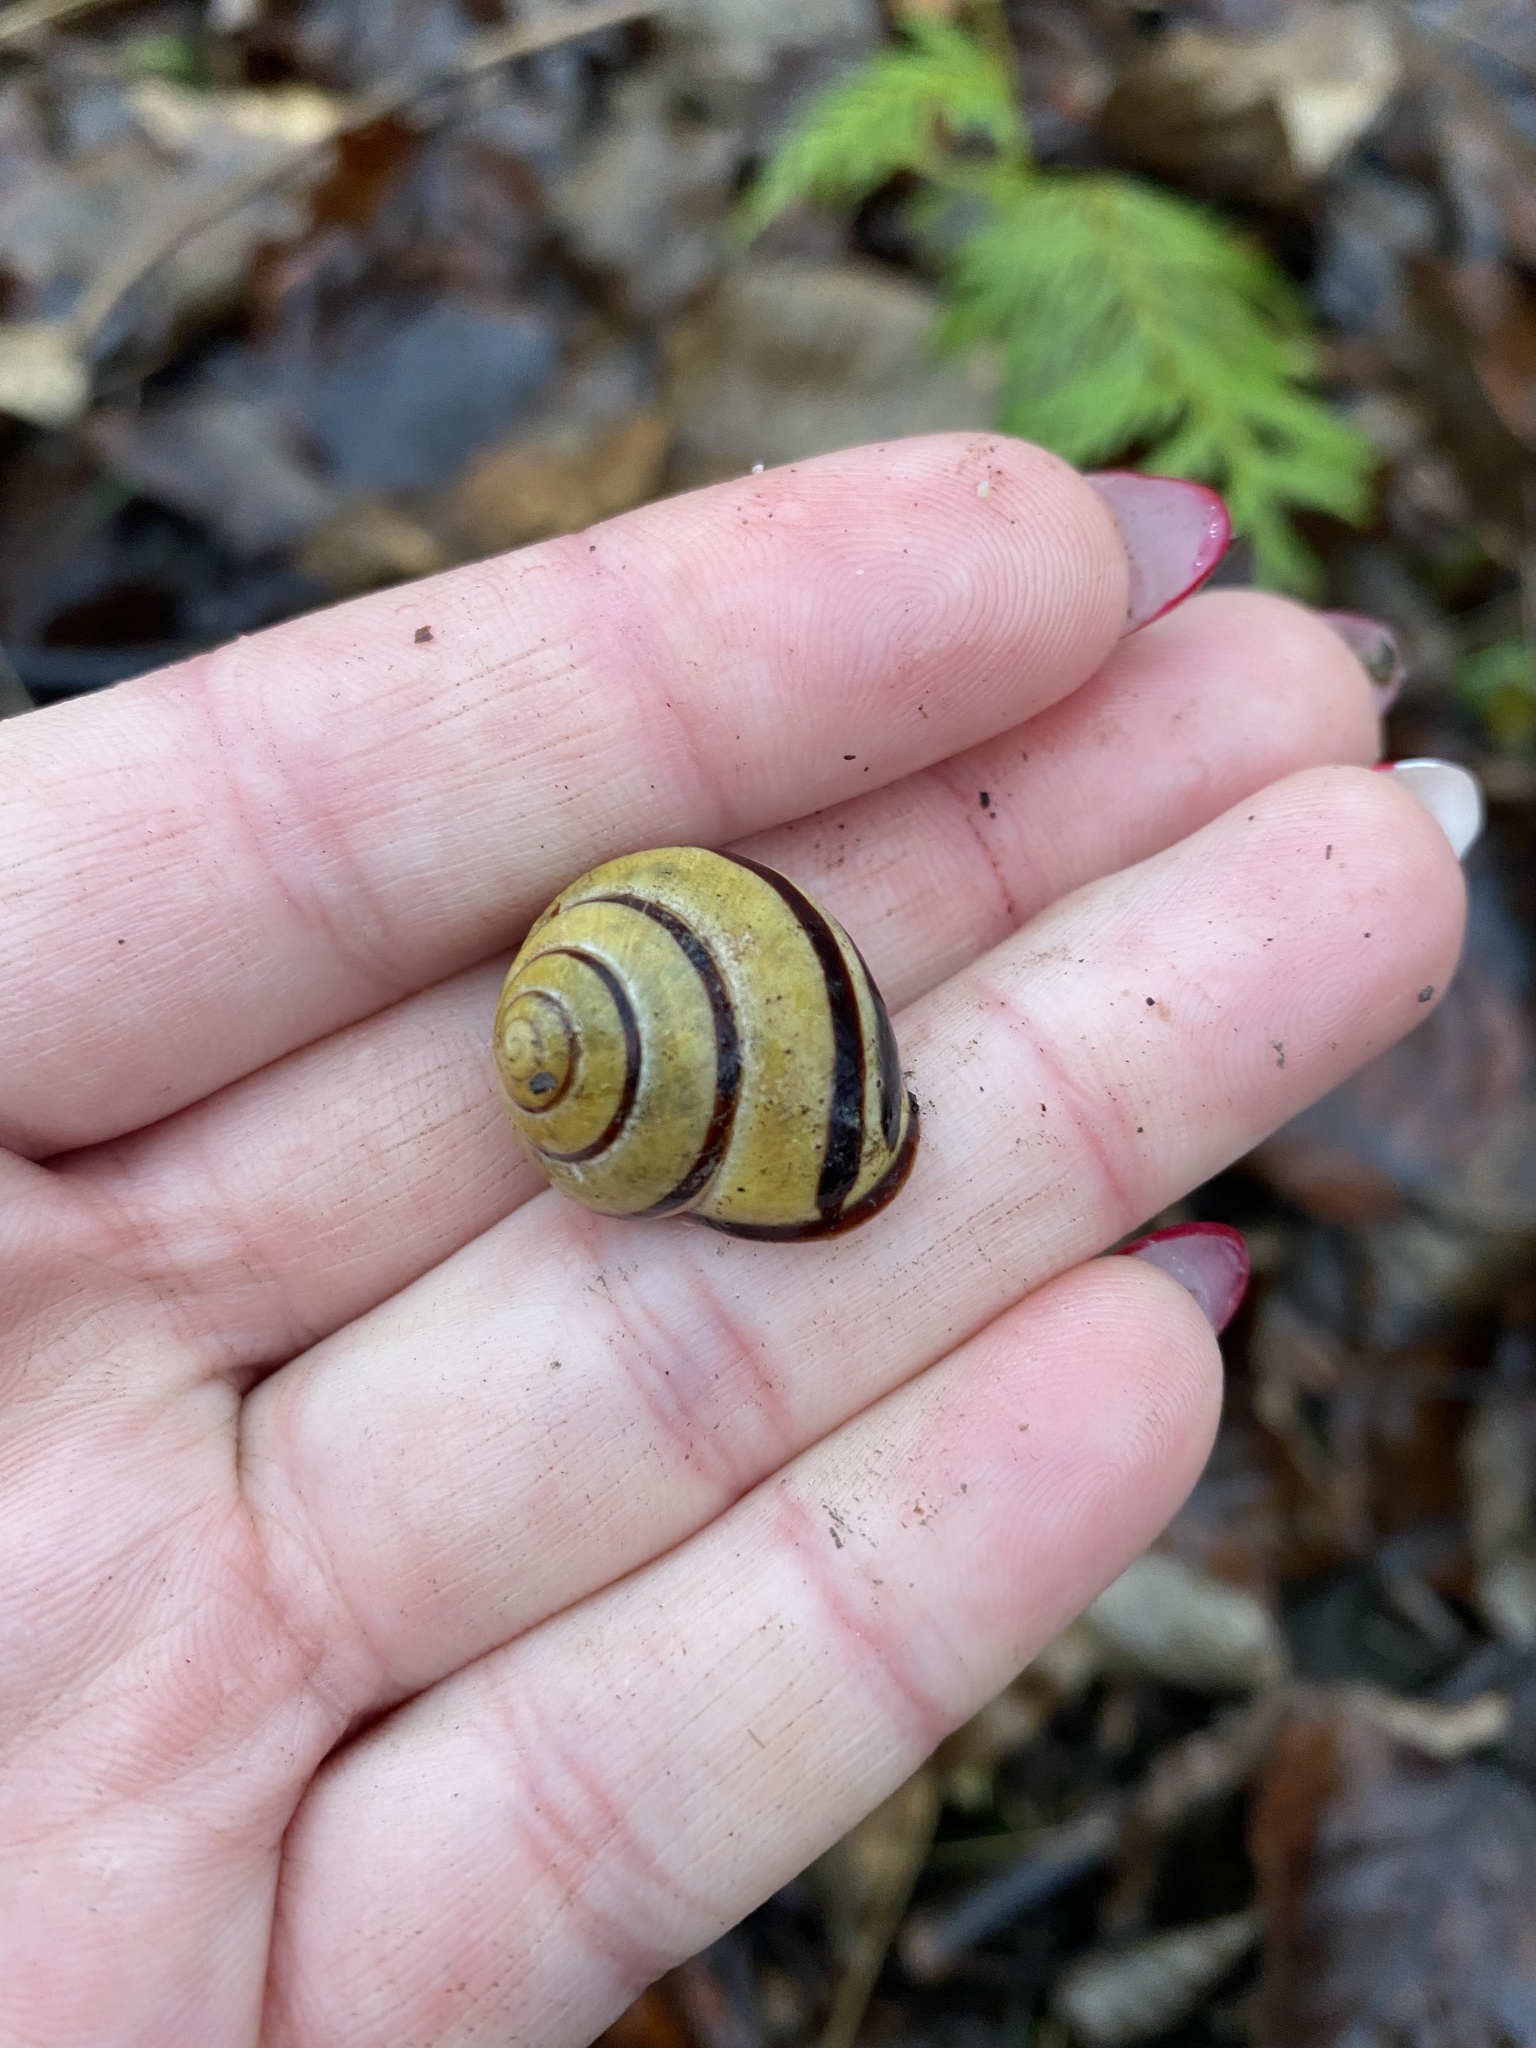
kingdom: Animalia
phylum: Mollusca
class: Gastropoda
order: Stylommatophora
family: Helicidae
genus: Cepaea
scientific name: Cepaea nemoralis
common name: Grovesnail
